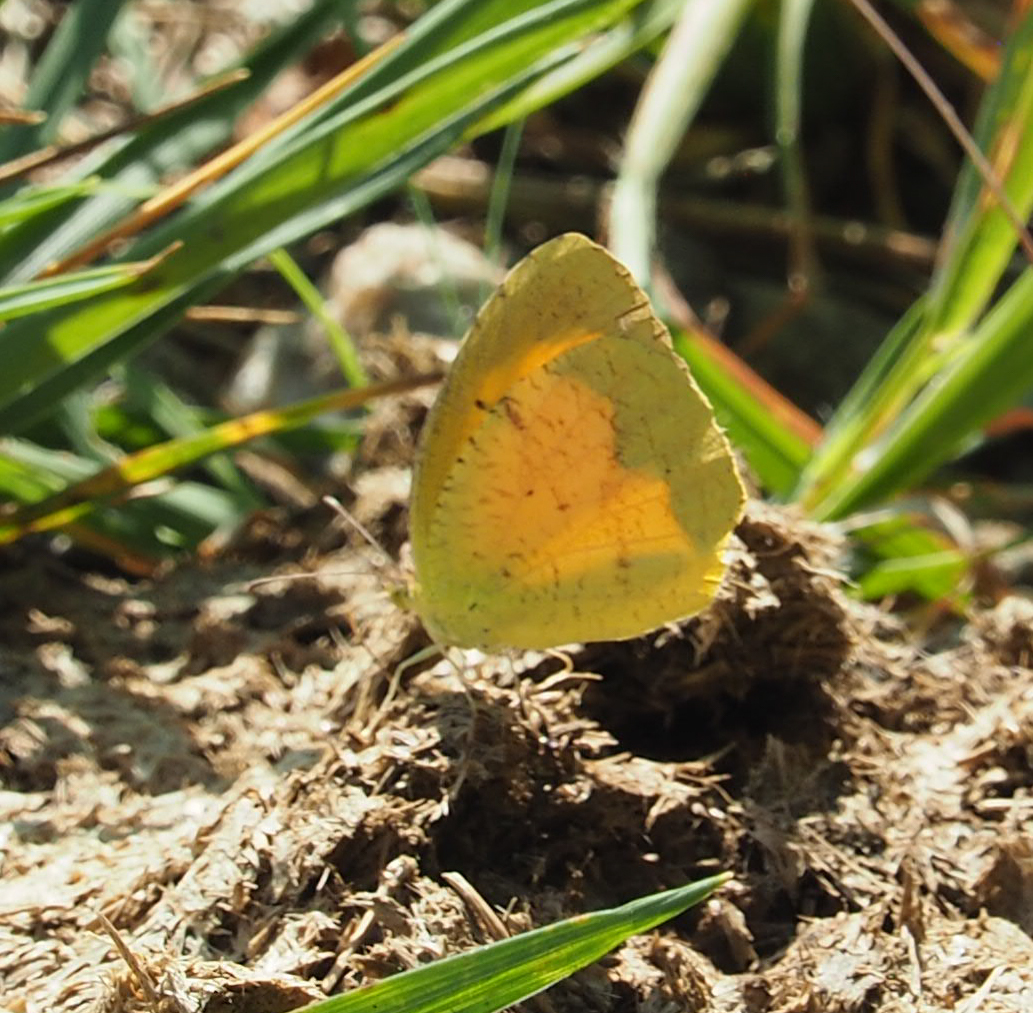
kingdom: Animalia
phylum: Arthropoda
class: Insecta
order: Lepidoptera
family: Pieridae
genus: Abaeis
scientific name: Abaeis nicippe
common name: Sleepy orange
